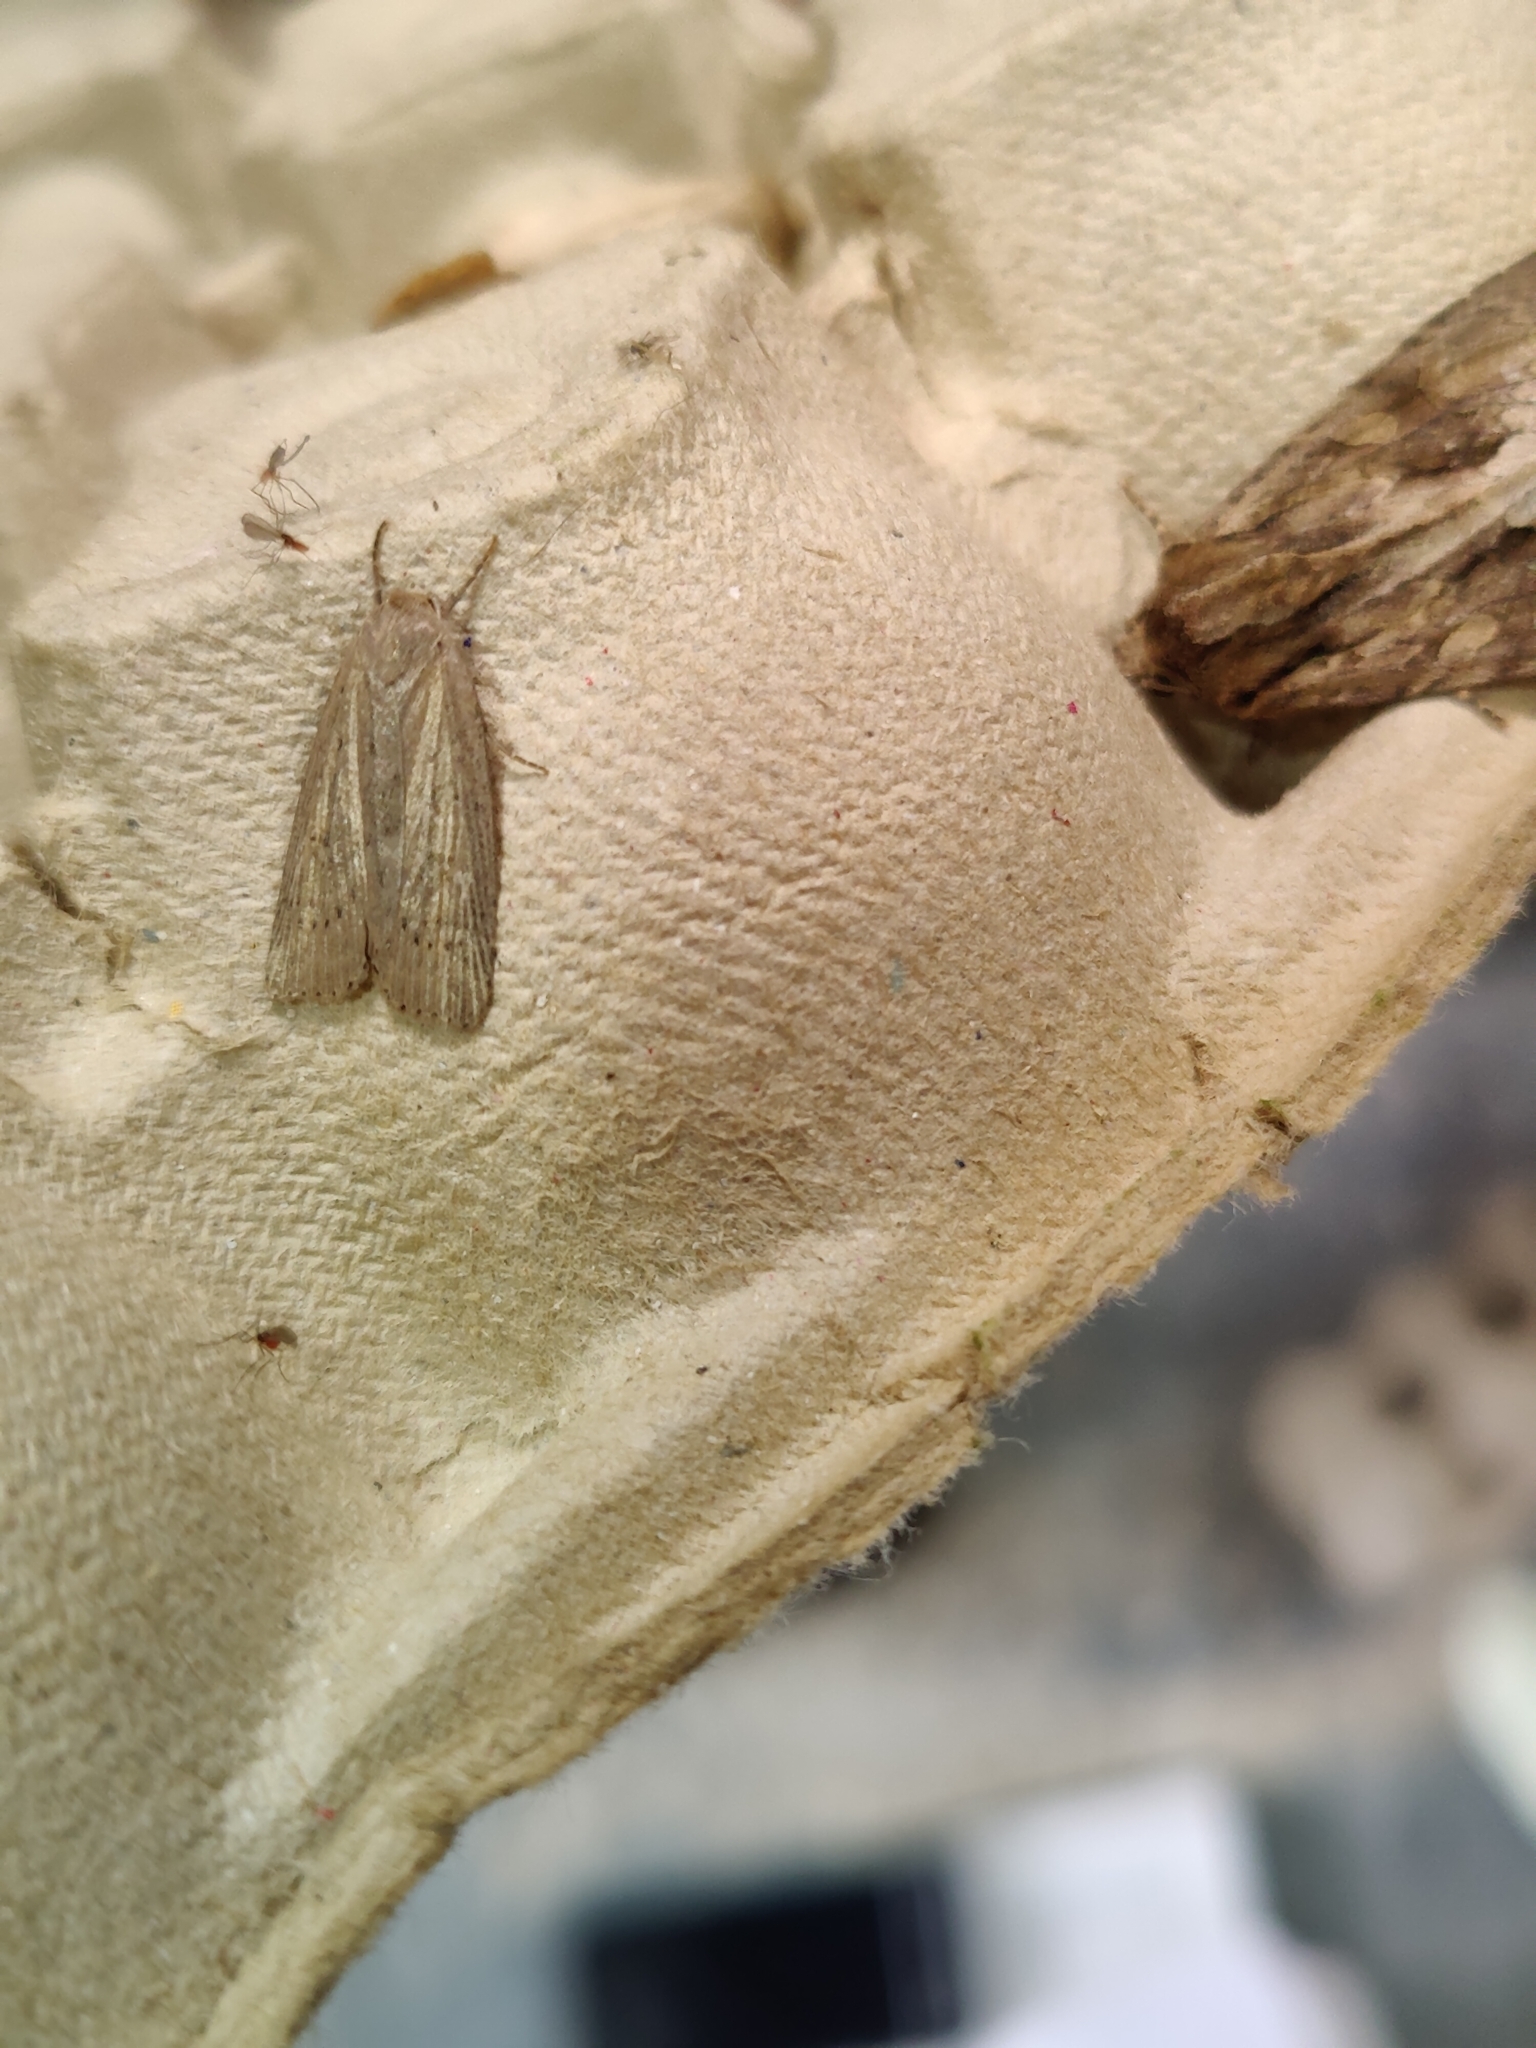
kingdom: Animalia
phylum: Arthropoda
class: Insecta
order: Lepidoptera
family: Noctuidae
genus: Chilodes
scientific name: Chilodes maritima
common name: Silky wainscot
